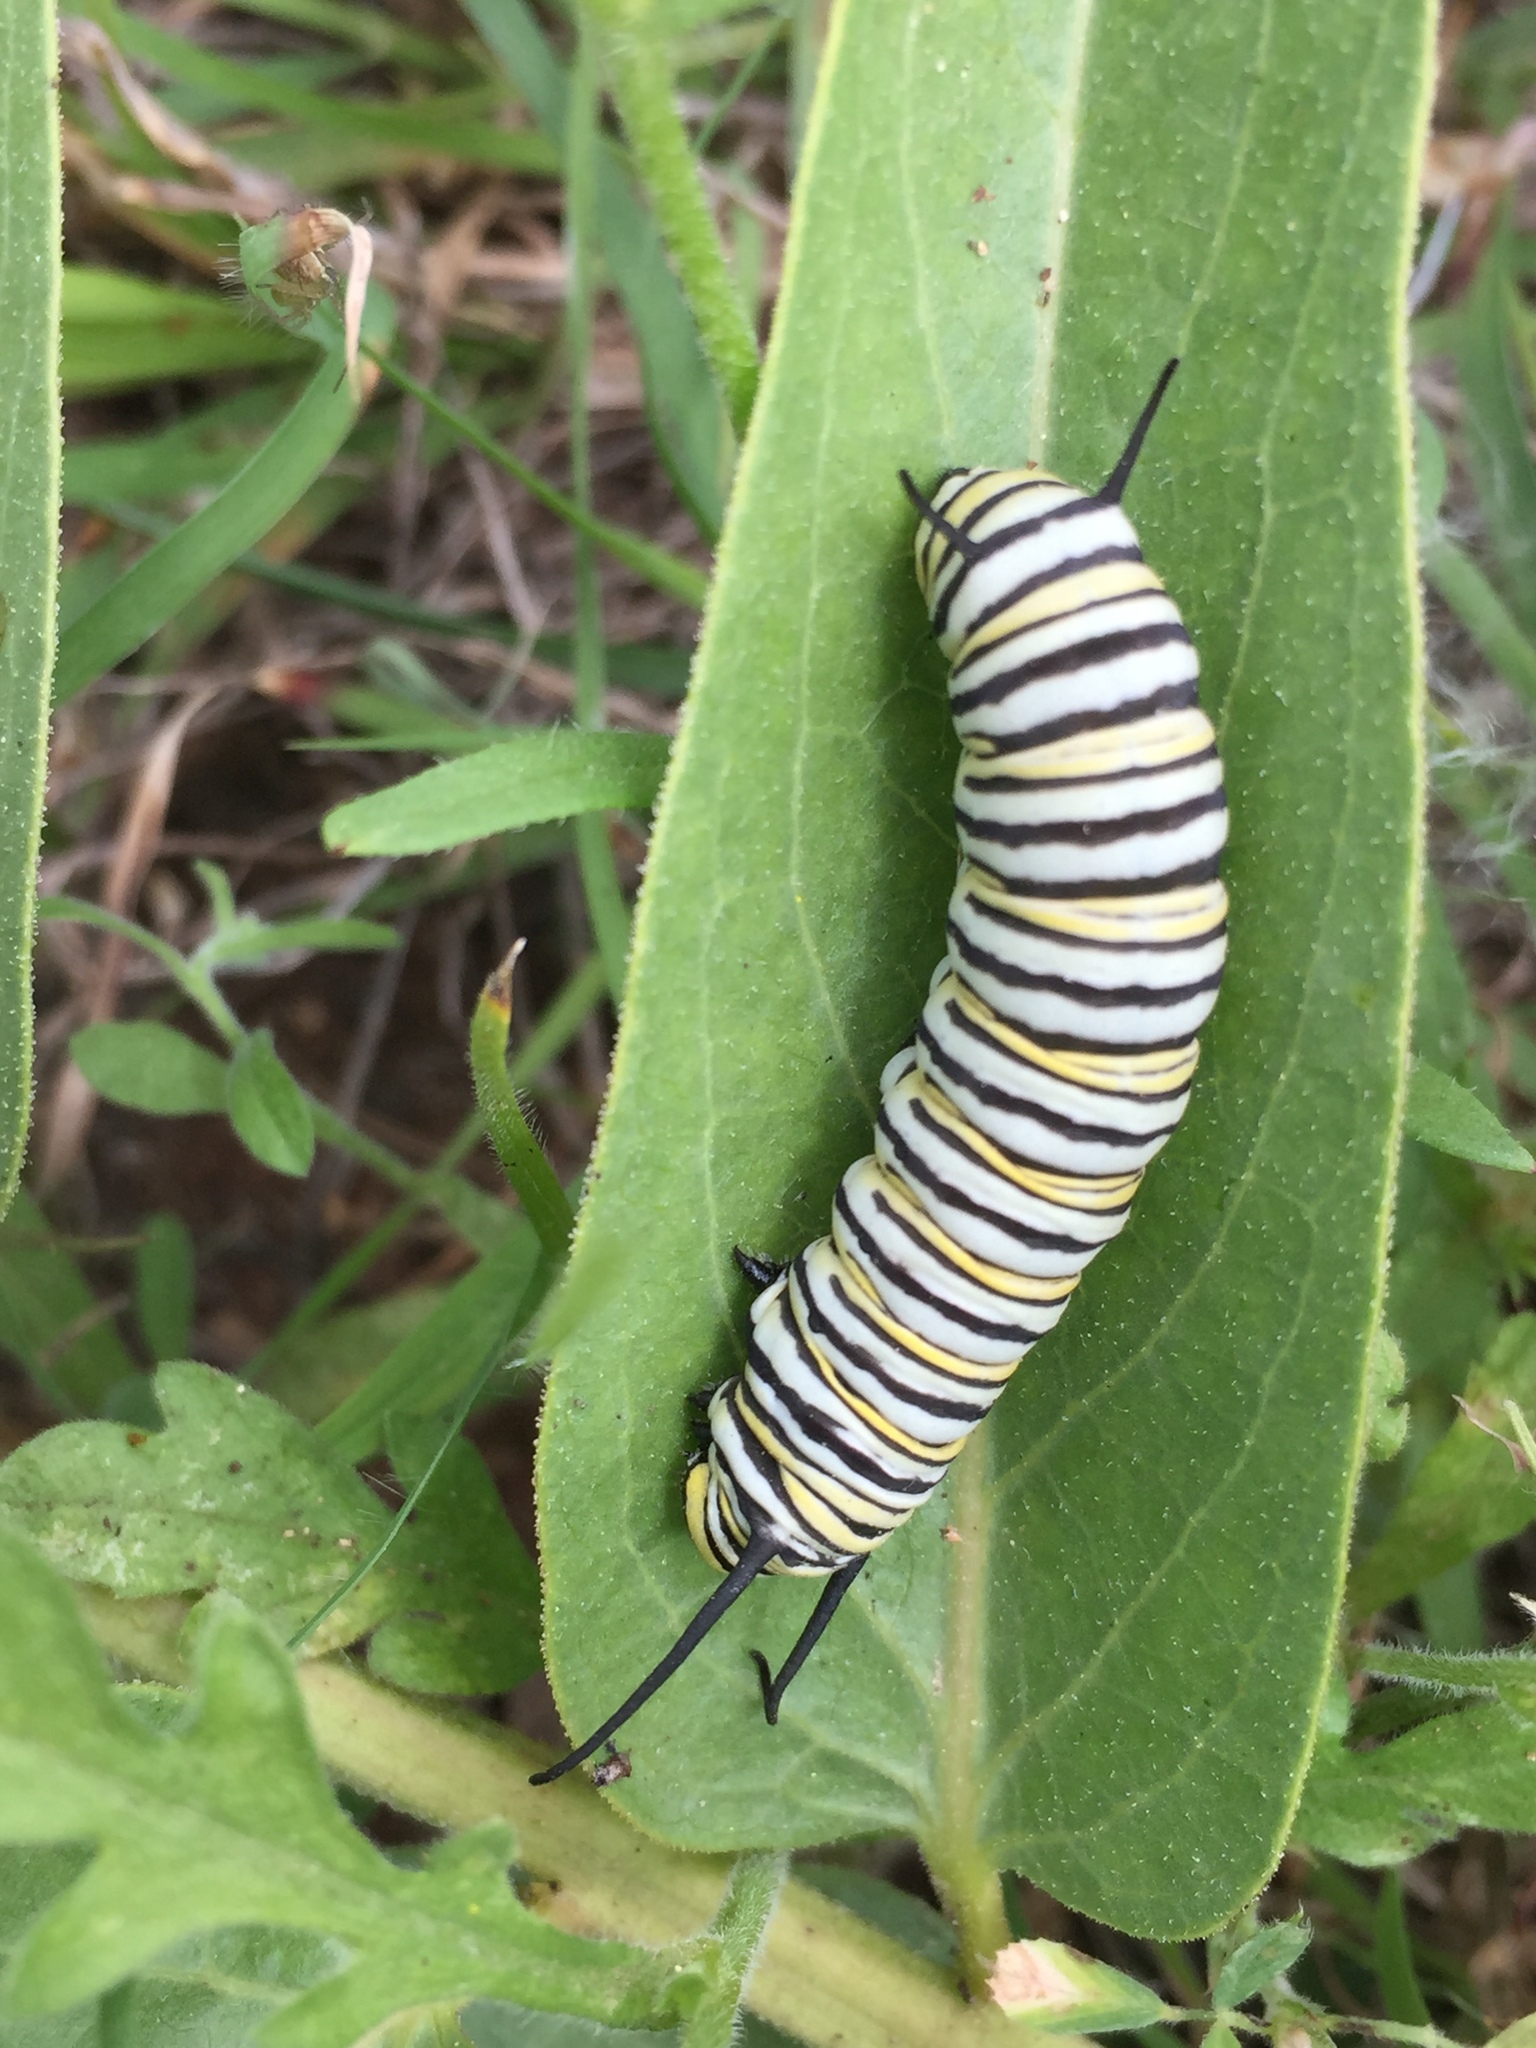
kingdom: Animalia
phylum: Arthropoda
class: Insecta
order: Lepidoptera
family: Nymphalidae
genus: Danaus
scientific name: Danaus plexippus
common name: Monarch
